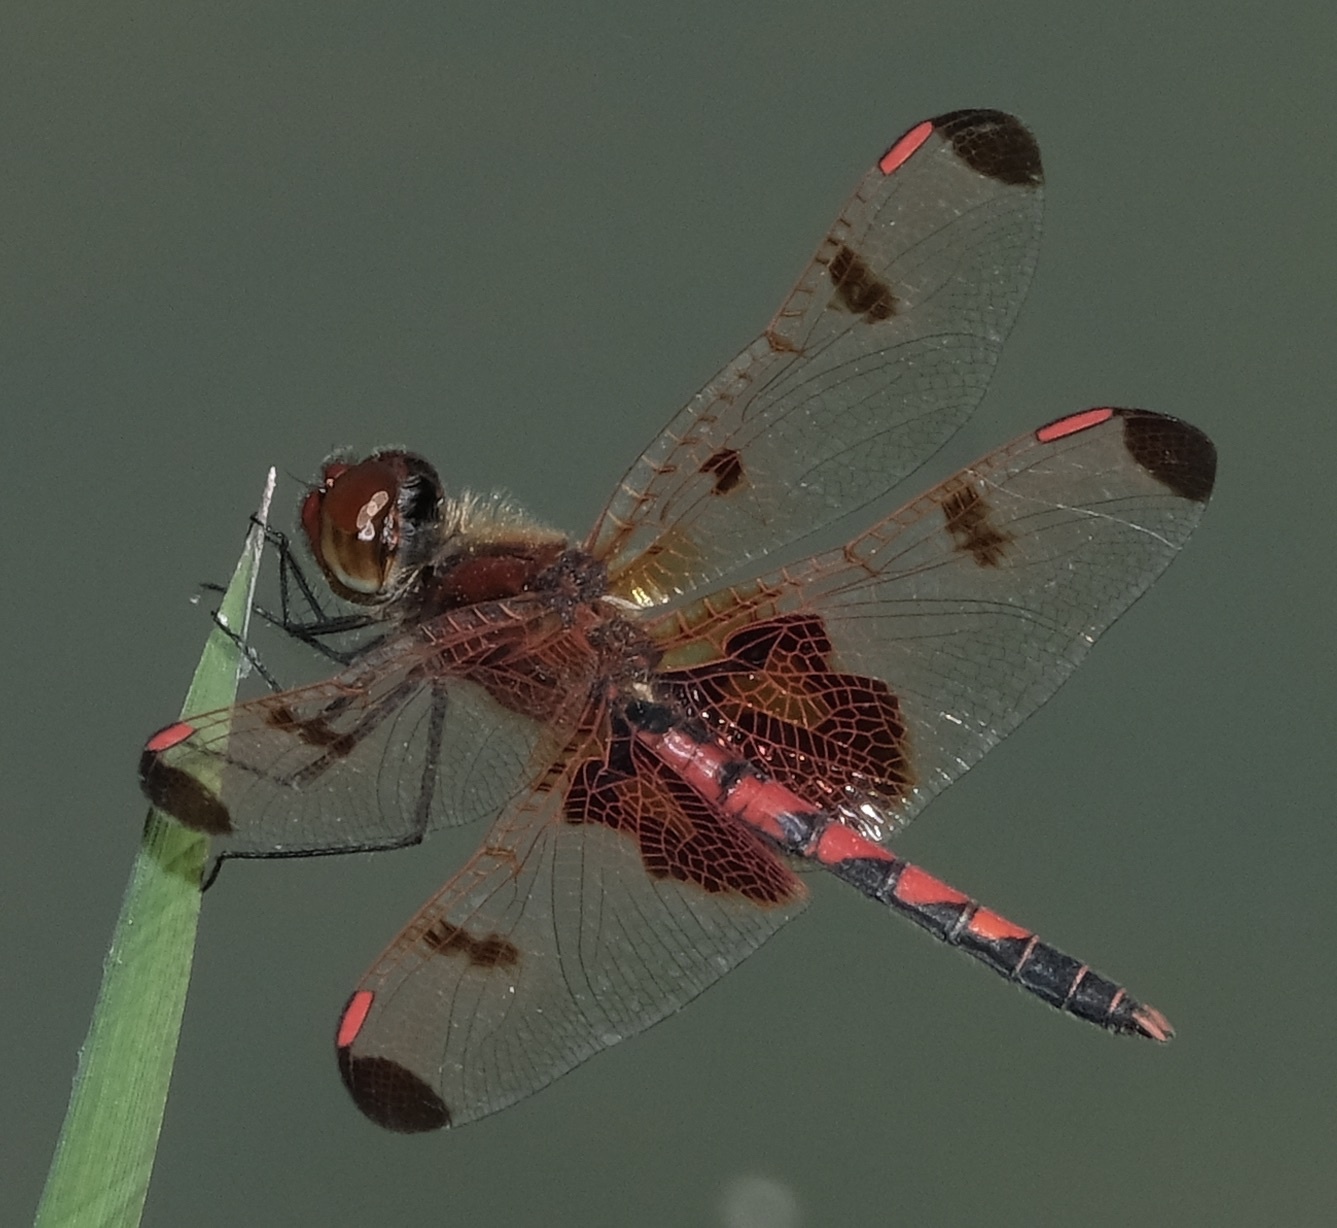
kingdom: Animalia
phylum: Arthropoda
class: Insecta
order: Odonata
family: Libellulidae
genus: Celithemis
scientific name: Celithemis elisa
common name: Calico pennant
